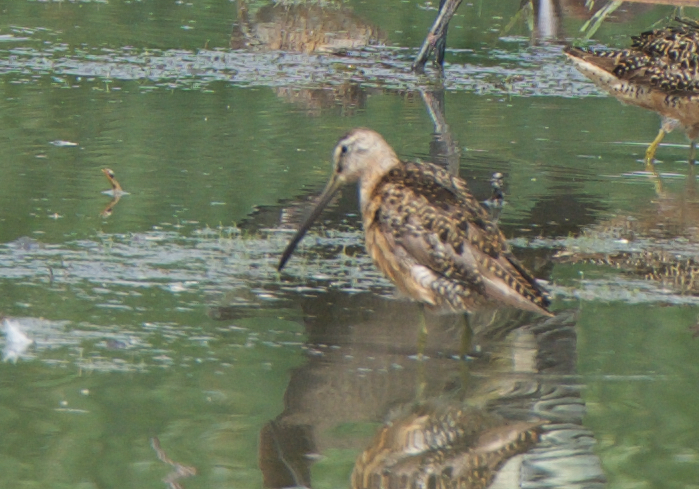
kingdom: Animalia
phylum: Chordata
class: Aves
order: Charadriiformes
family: Scolopacidae
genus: Limnodromus
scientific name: Limnodromus scolopaceus
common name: Long-billed dowitcher
